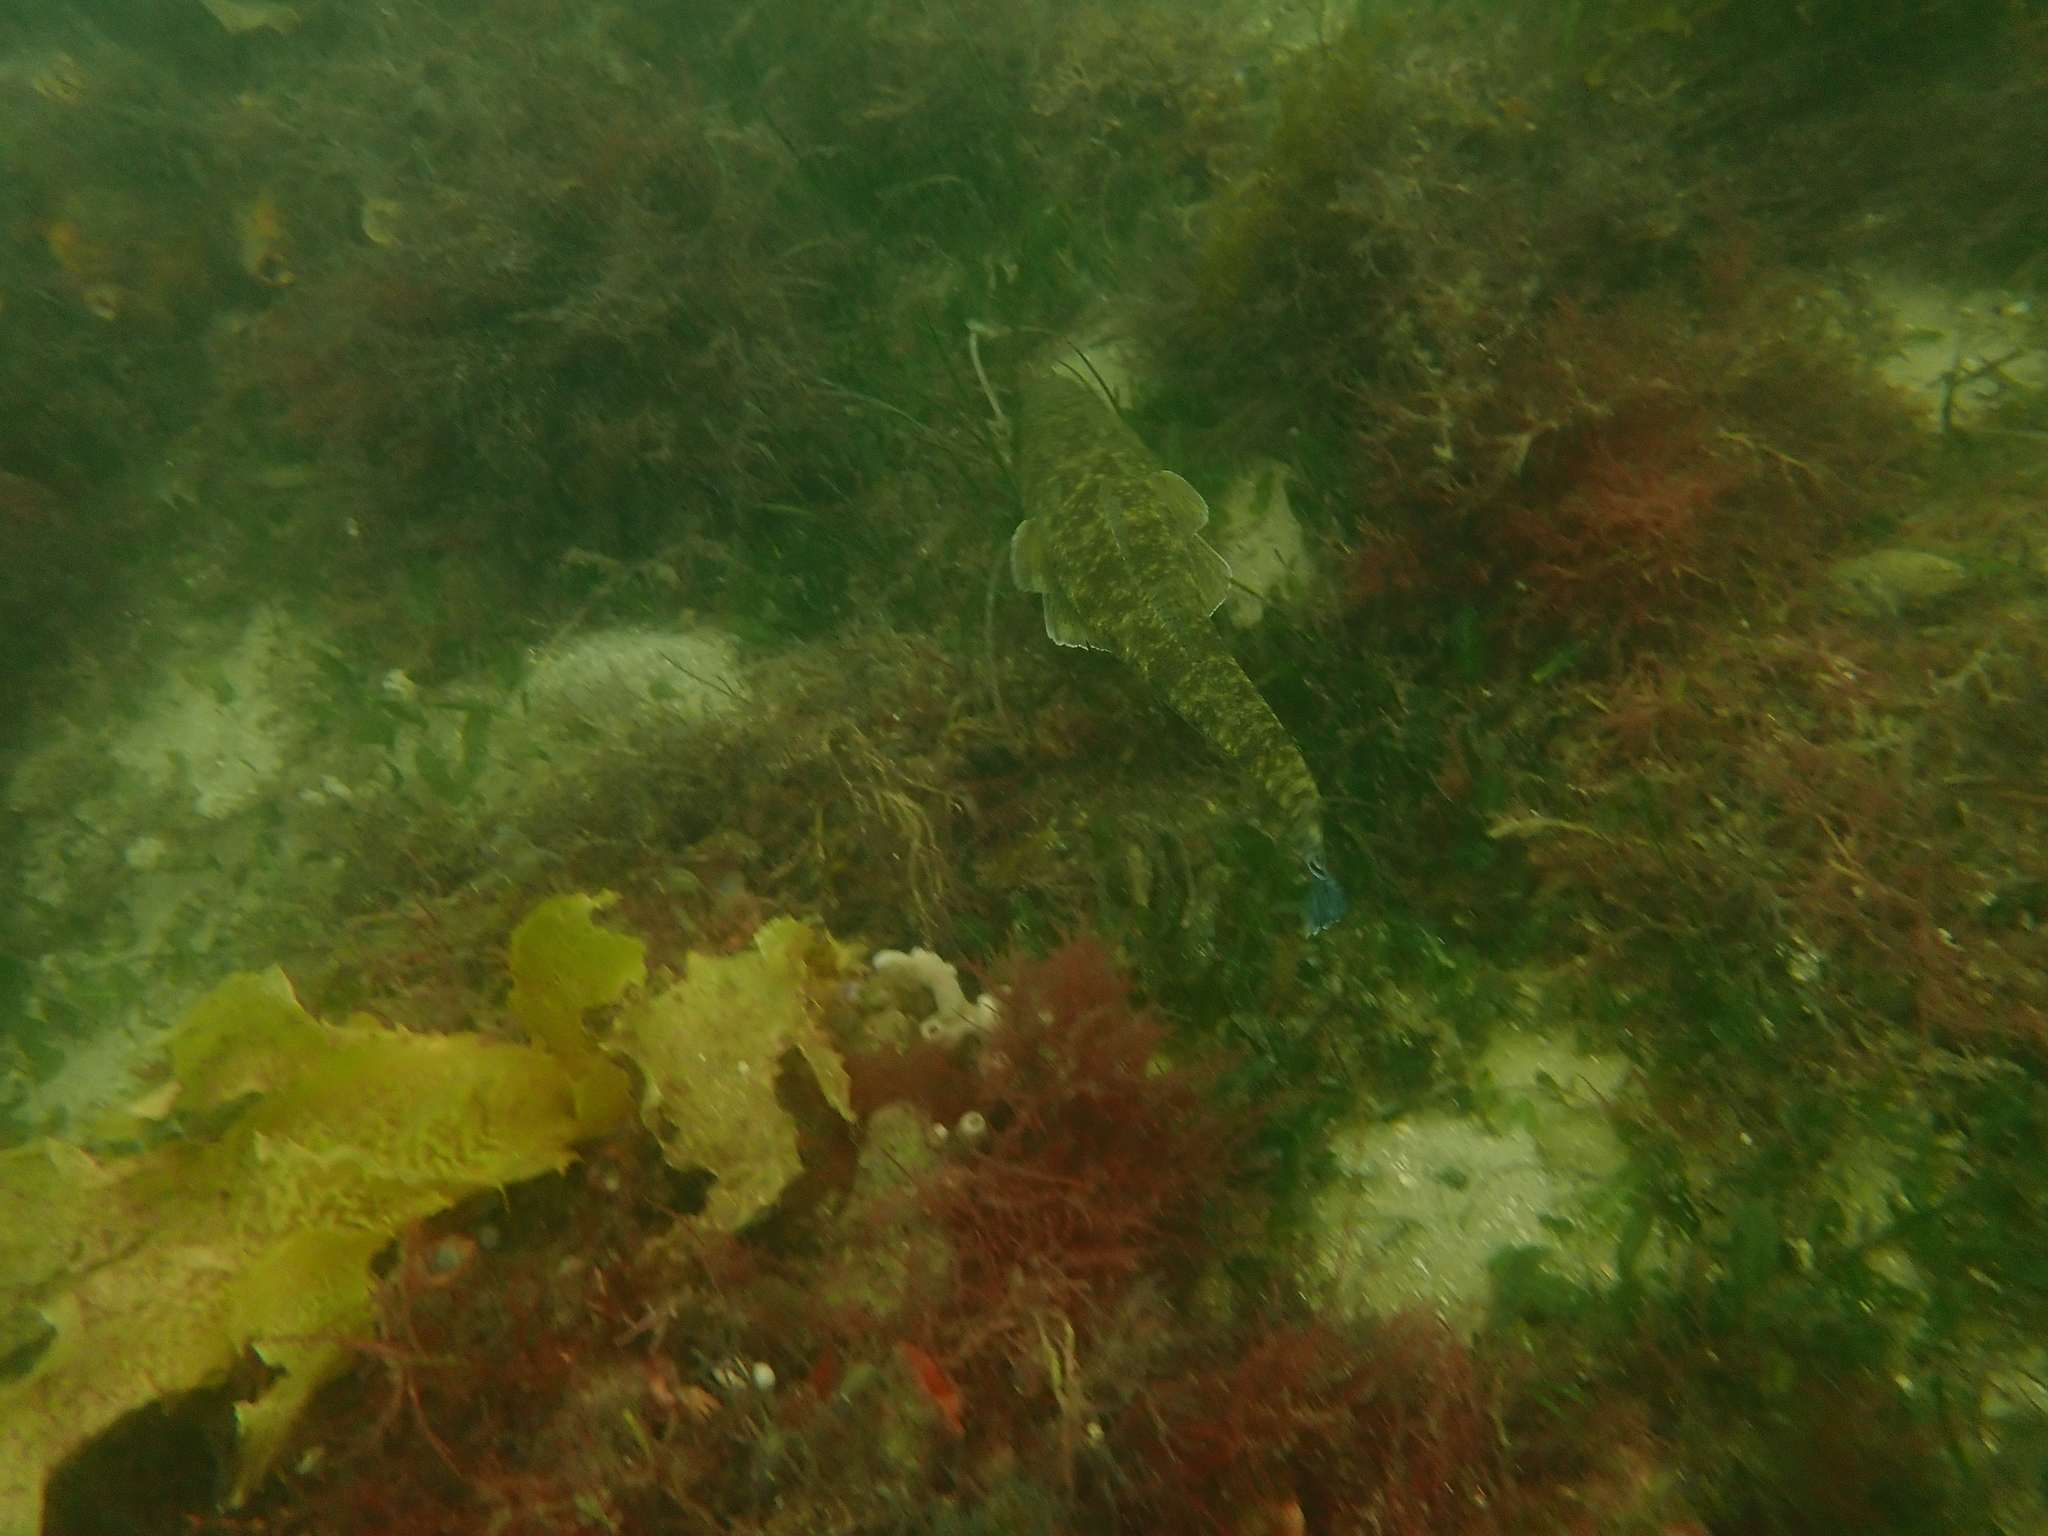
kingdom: Animalia
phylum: Chordata
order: Scorpaeniformes
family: Platycephalidae
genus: Platycephalus
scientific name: Platycephalus fuscus
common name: Dusky flathead
